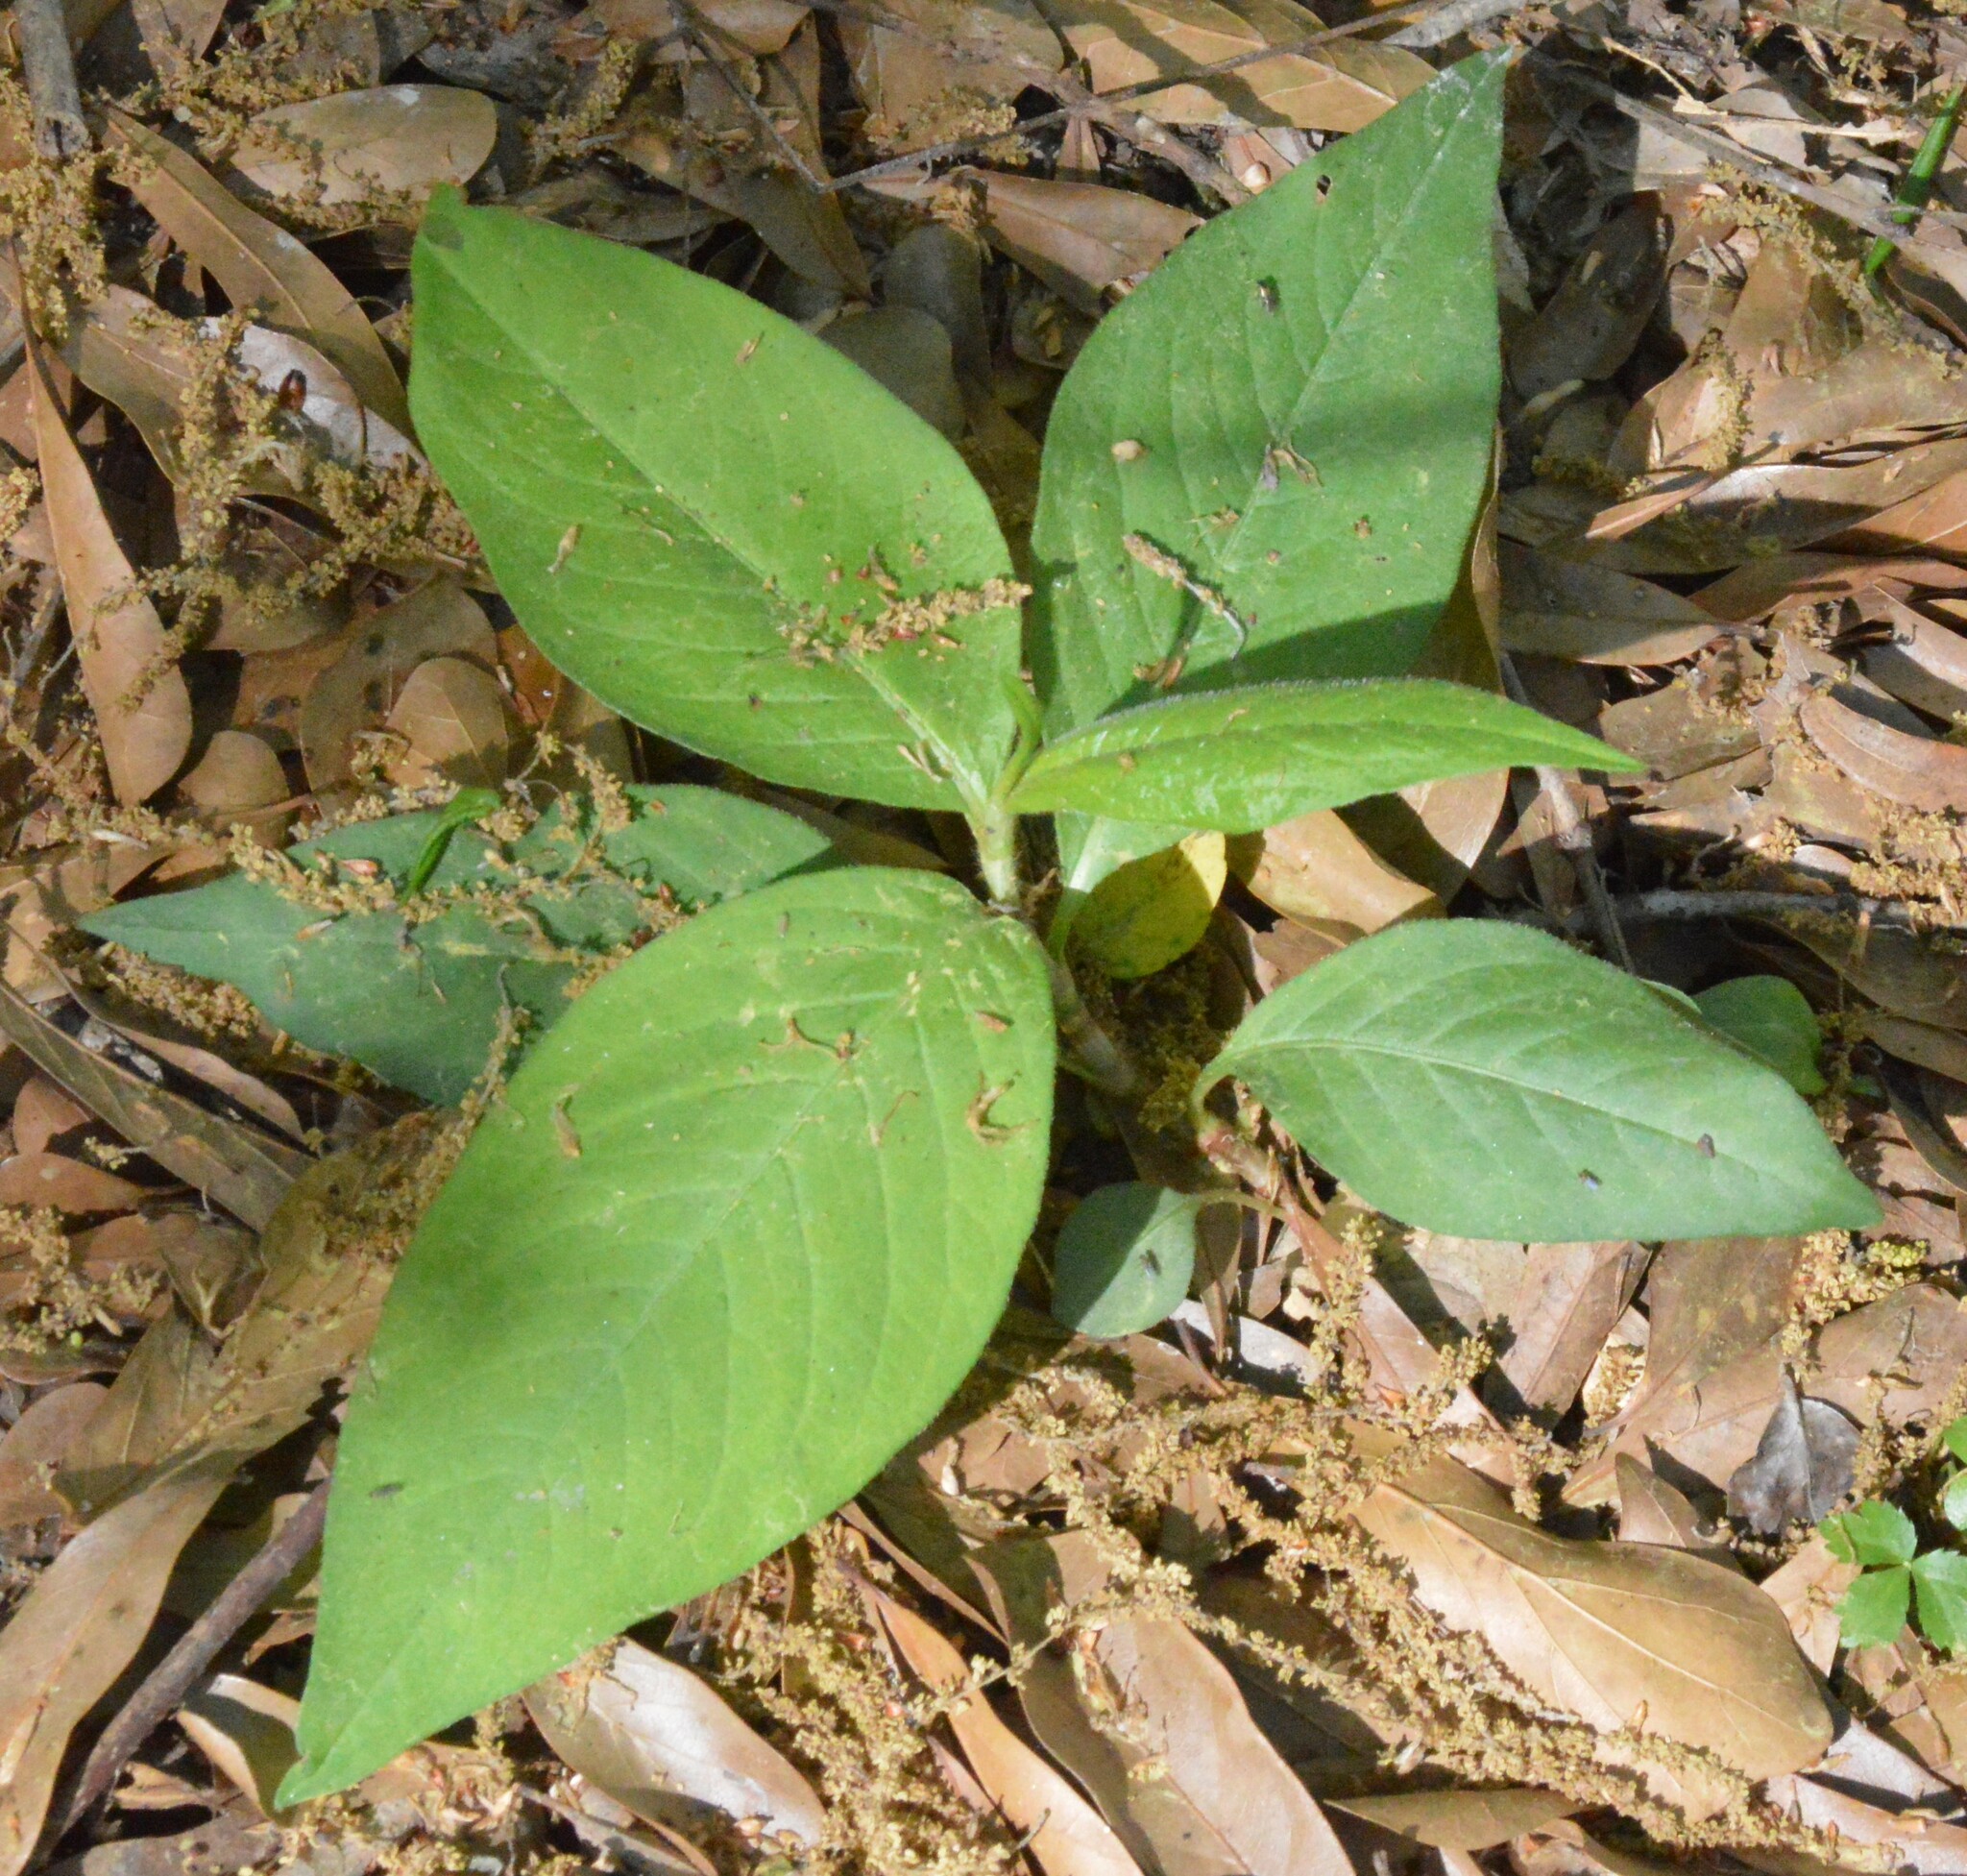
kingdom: Plantae
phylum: Tracheophyta
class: Magnoliopsida
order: Caryophyllales
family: Polygonaceae
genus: Persicaria
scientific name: Persicaria virginiana
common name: Jumpseed
